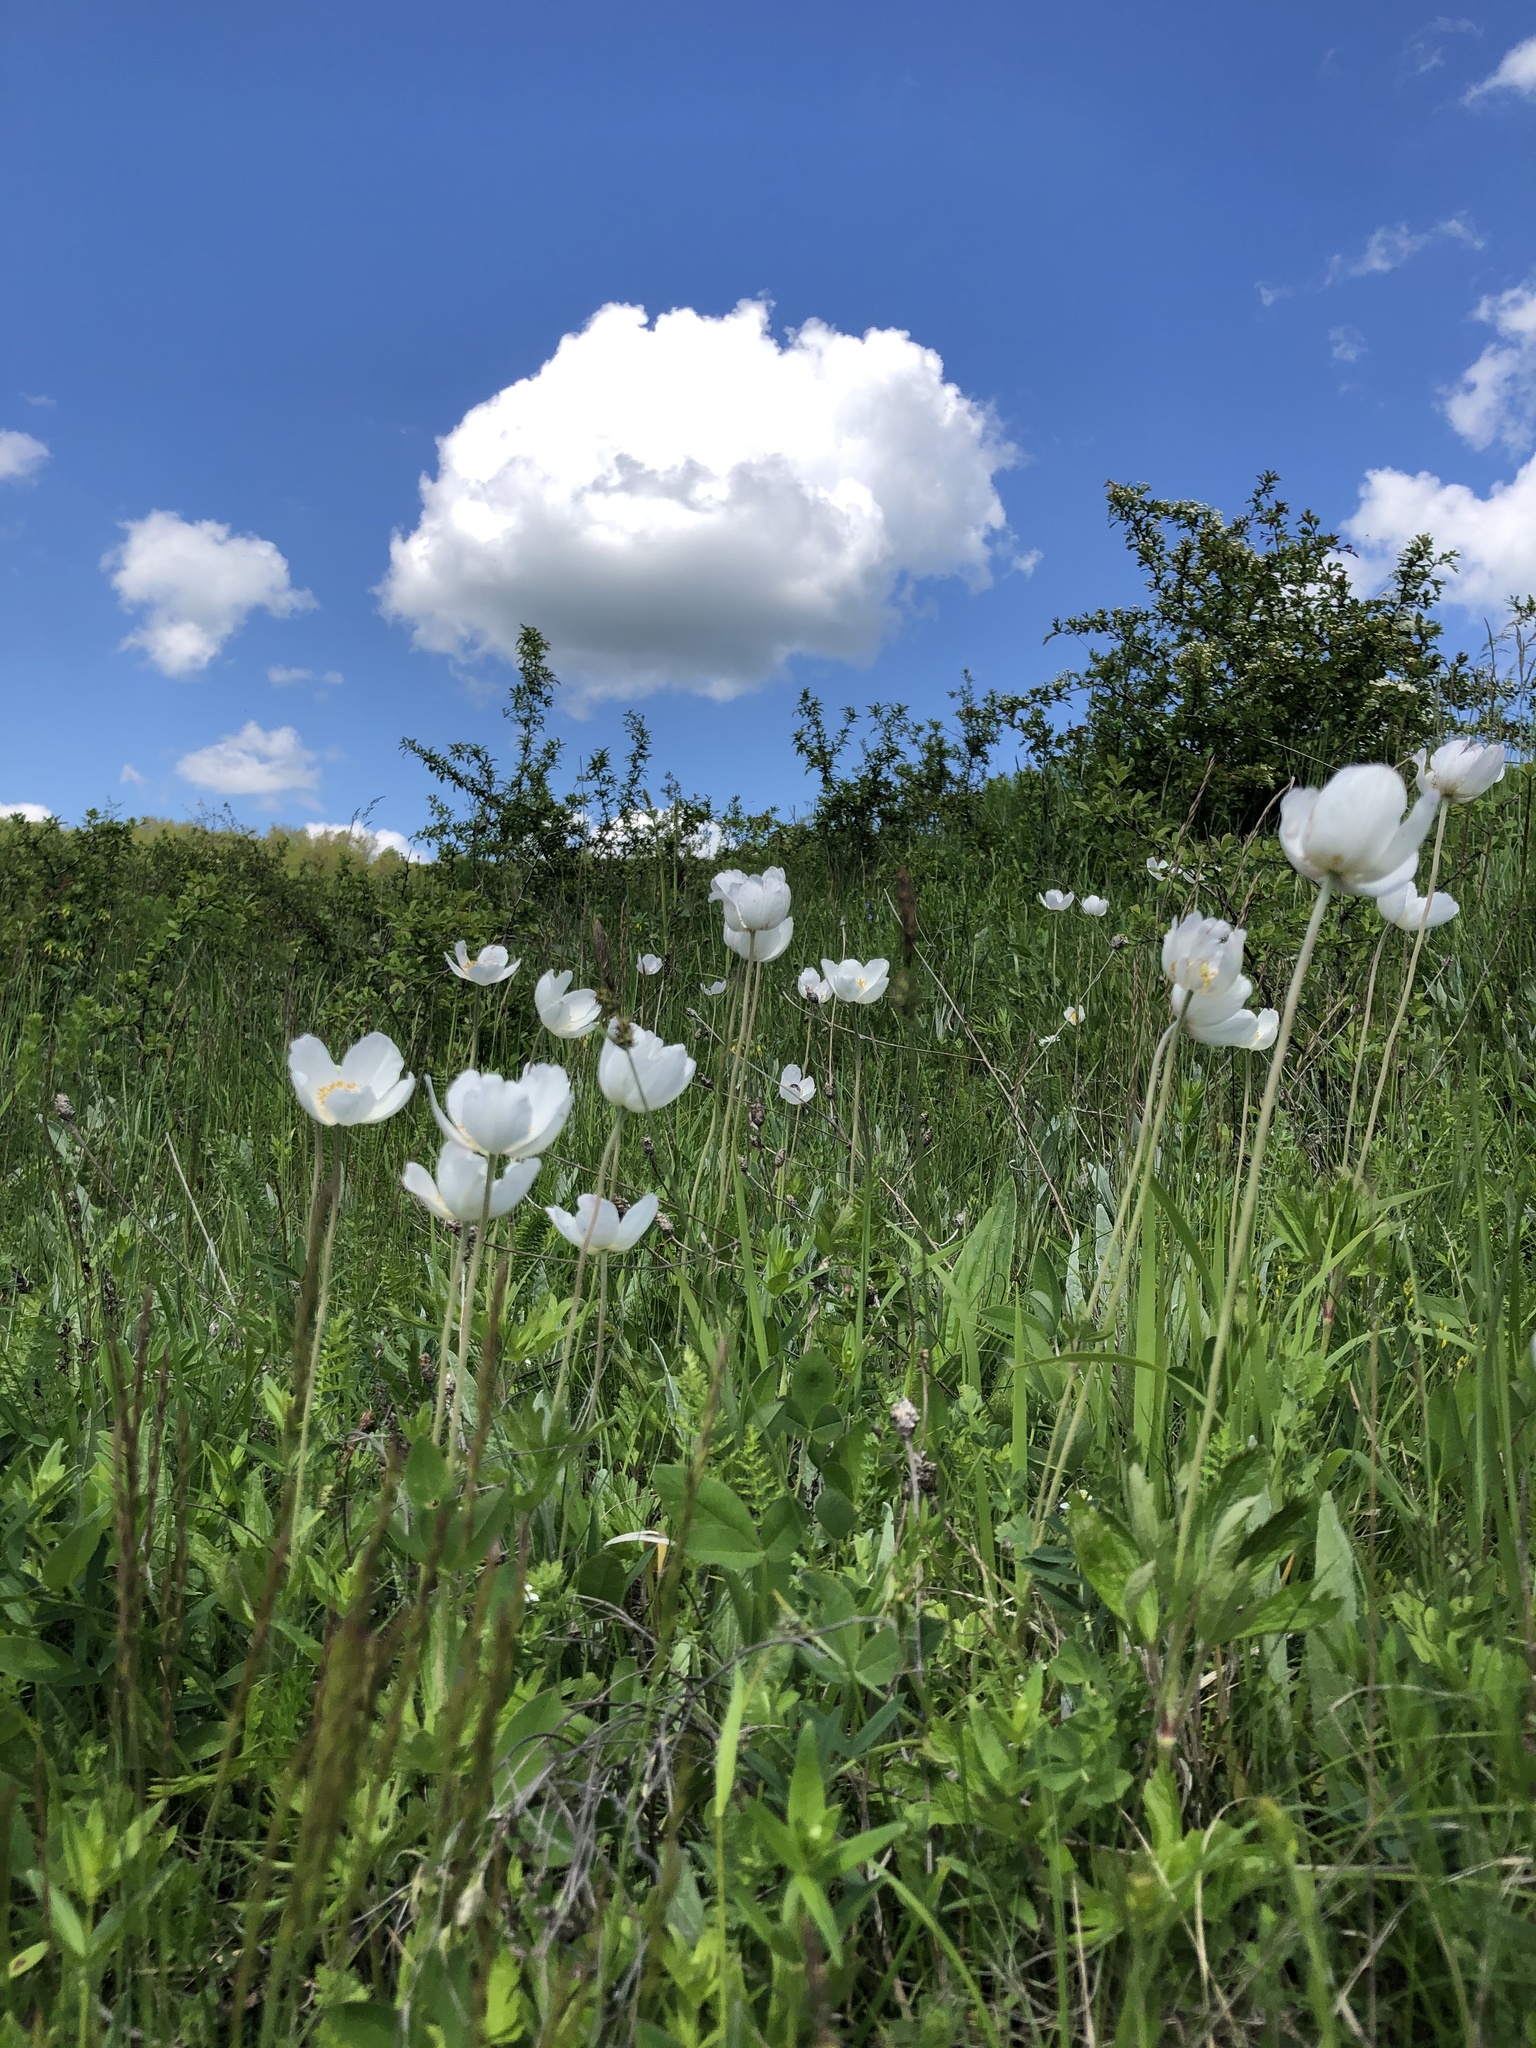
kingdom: Plantae
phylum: Tracheophyta
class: Magnoliopsida
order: Ranunculales
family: Ranunculaceae
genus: Anemone
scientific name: Anemone sylvestris
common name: Snowdrop anemone
